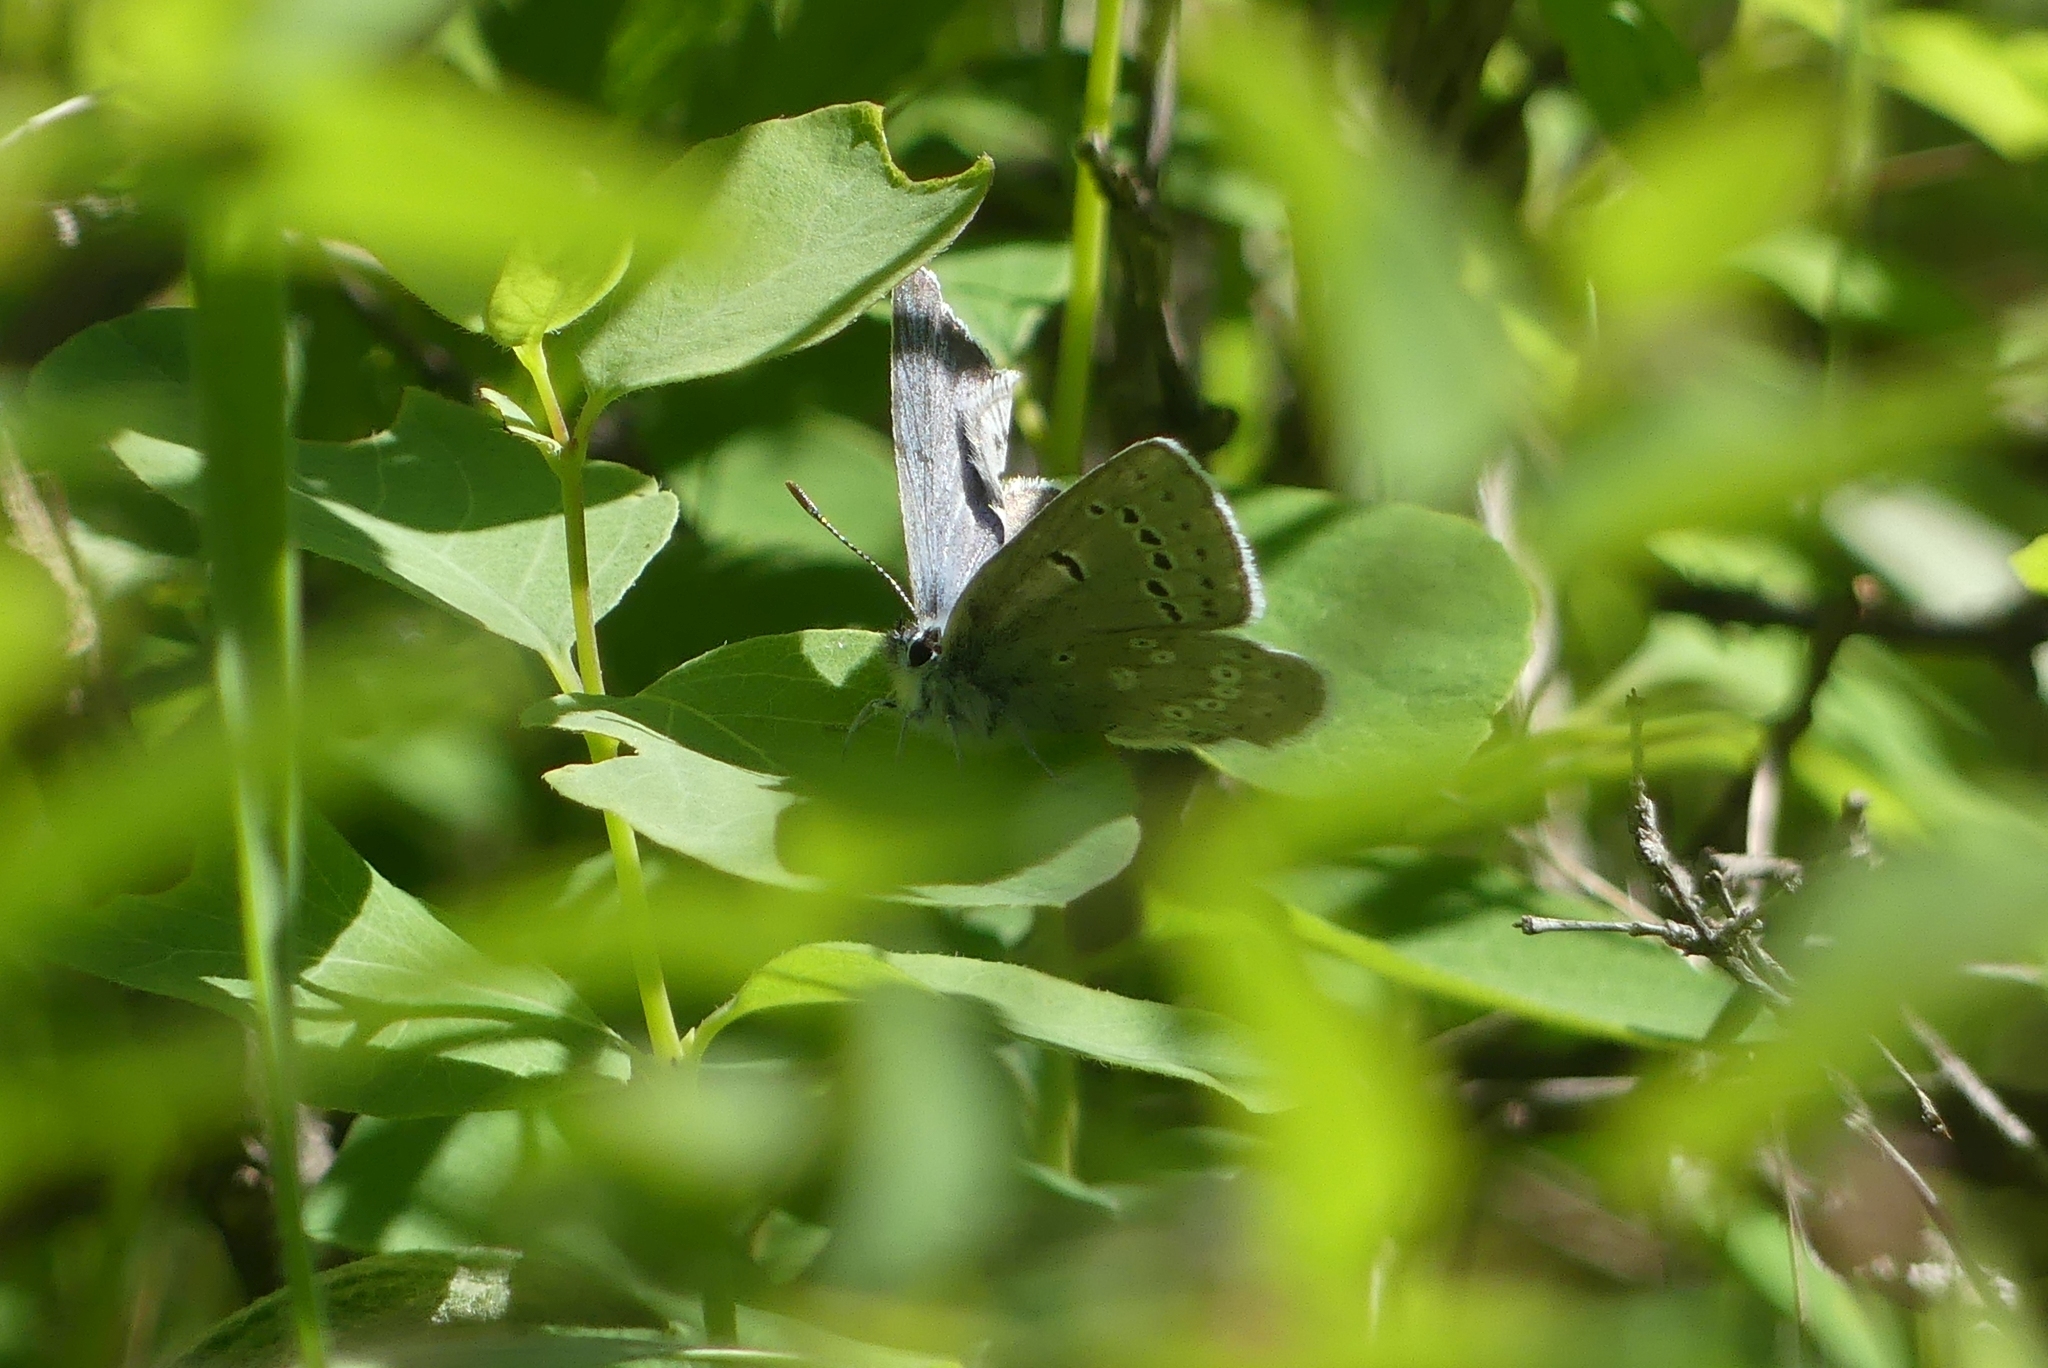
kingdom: Animalia
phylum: Arthropoda
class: Insecta
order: Lepidoptera
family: Lycaenidae
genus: Icaricia
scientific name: Icaricia icarioides
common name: Boisduval's blue
